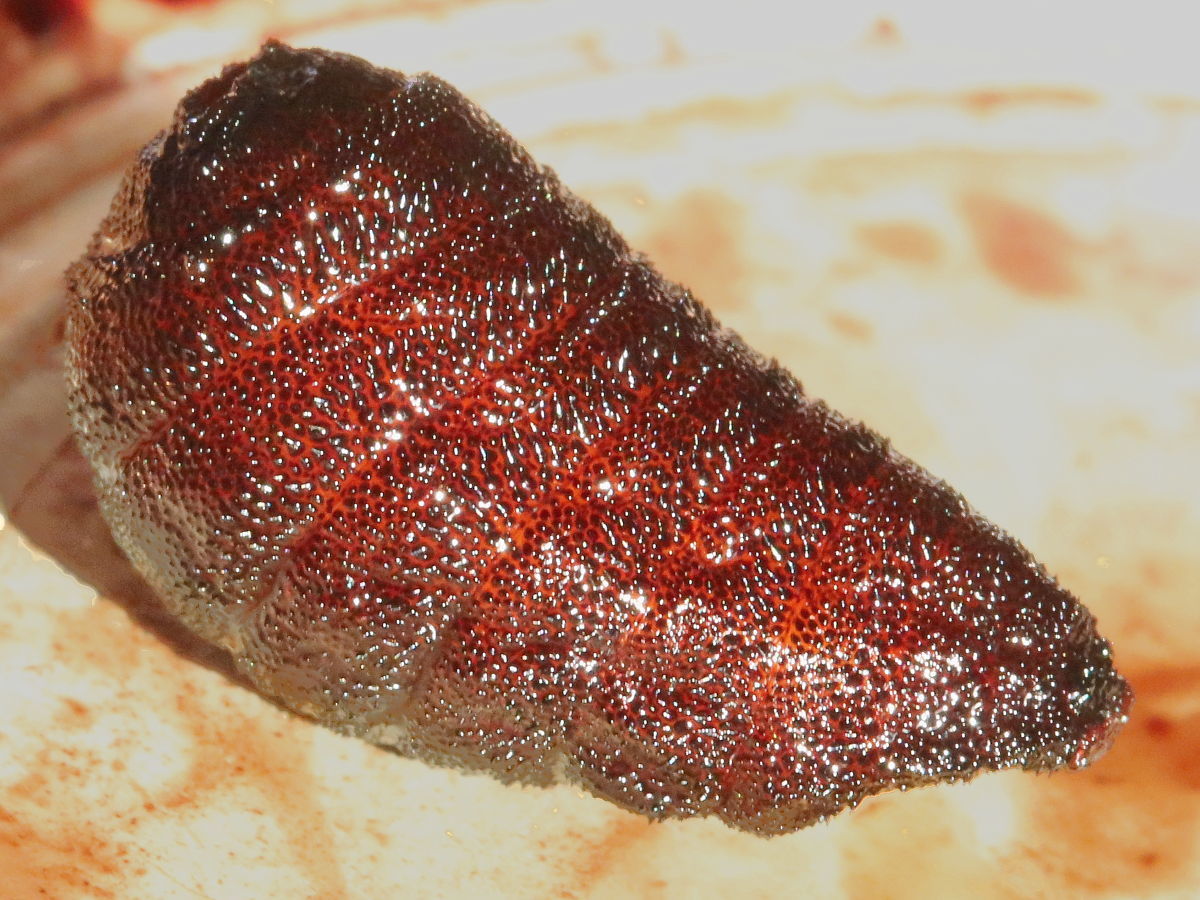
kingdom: Animalia
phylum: Arthropoda
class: Insecta
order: Diptera
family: Oestridae
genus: Cuterebra
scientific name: Cuterebra buccata
